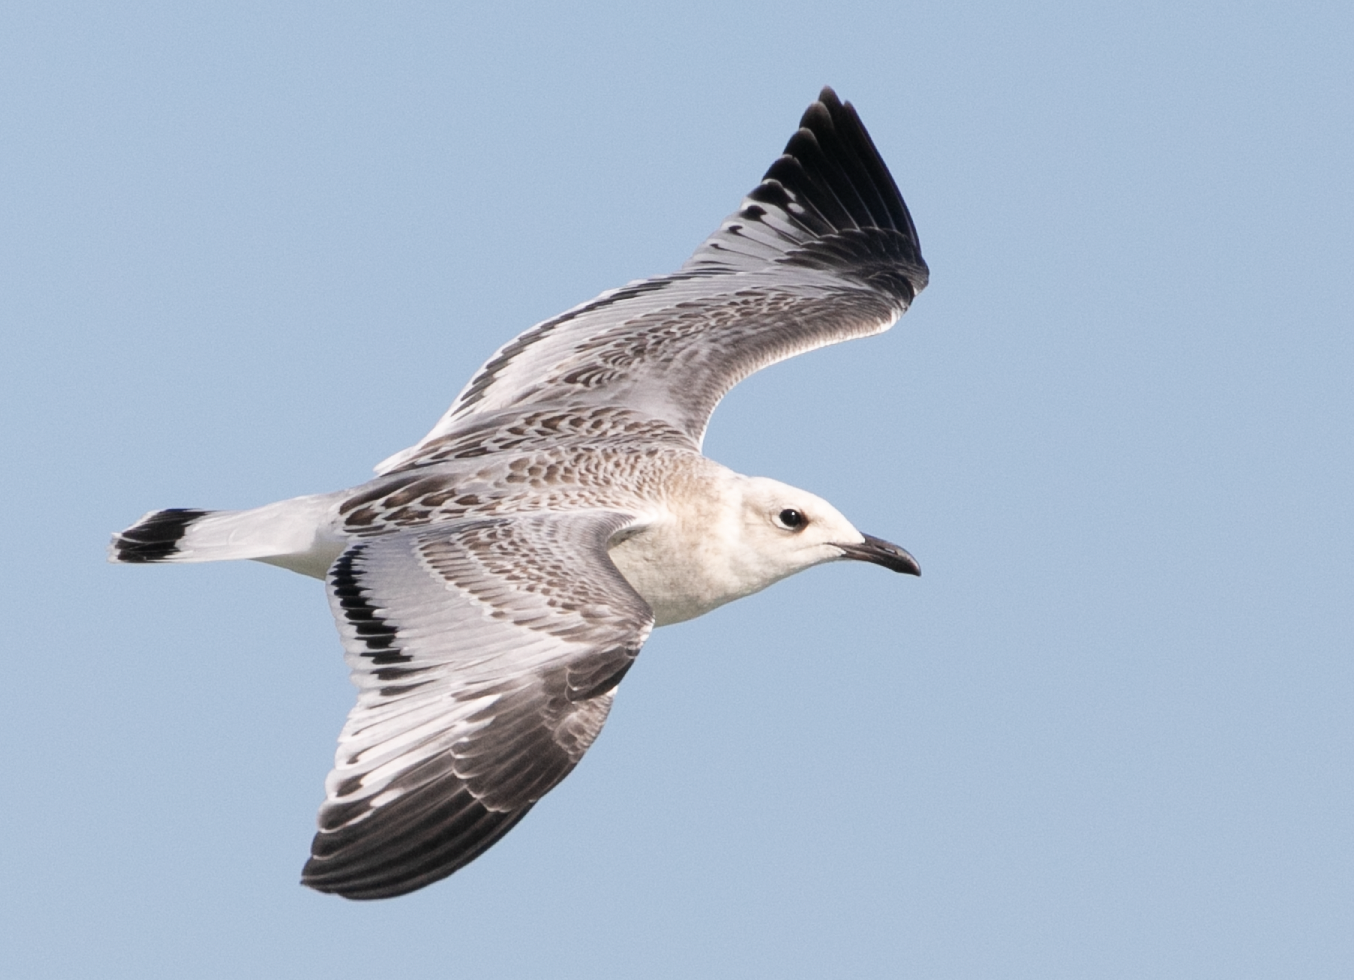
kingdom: Animalia
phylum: Chordata
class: Aves
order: Charadriiformes
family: Laridae
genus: Ichthyaetus
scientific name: Ichthyaetus melanocephalus
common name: Mediterranean gull
